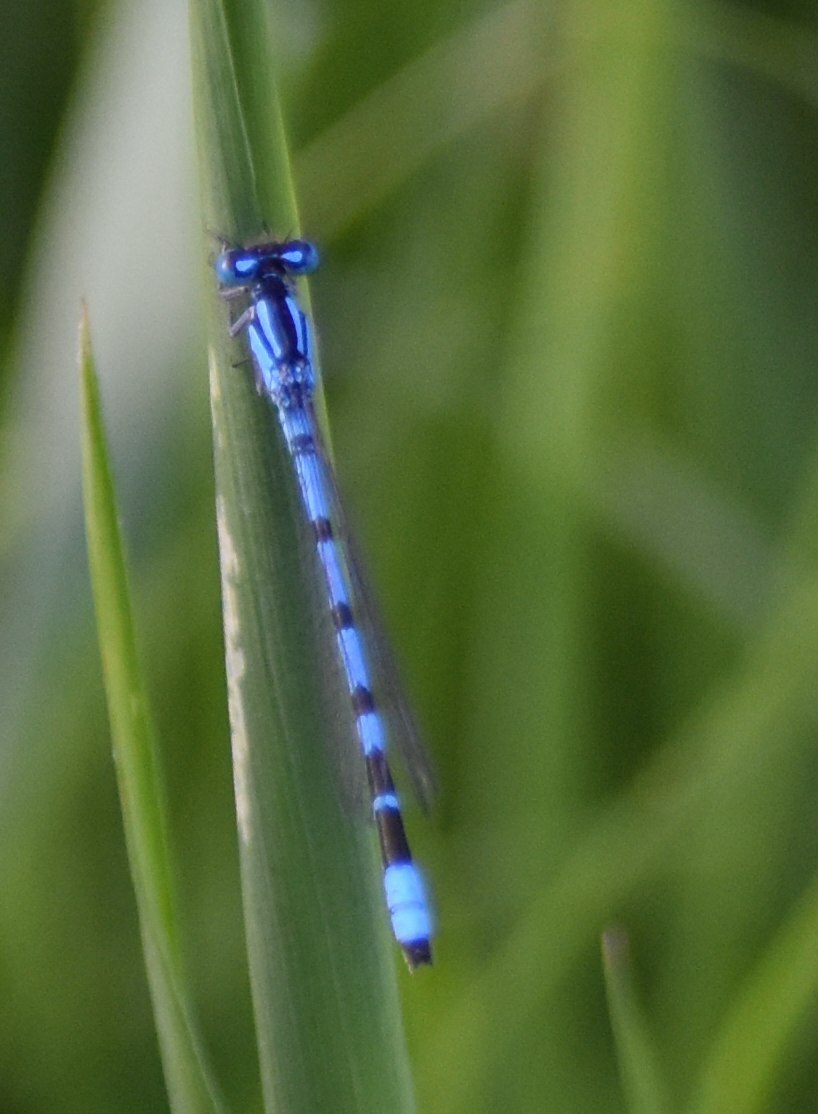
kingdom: Animalia
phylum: Arthropoda
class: Insecta
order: Odonata
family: Coenagrionidae
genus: Enallagma
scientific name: Enallagma cyathigerum
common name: Common blue damselfly
